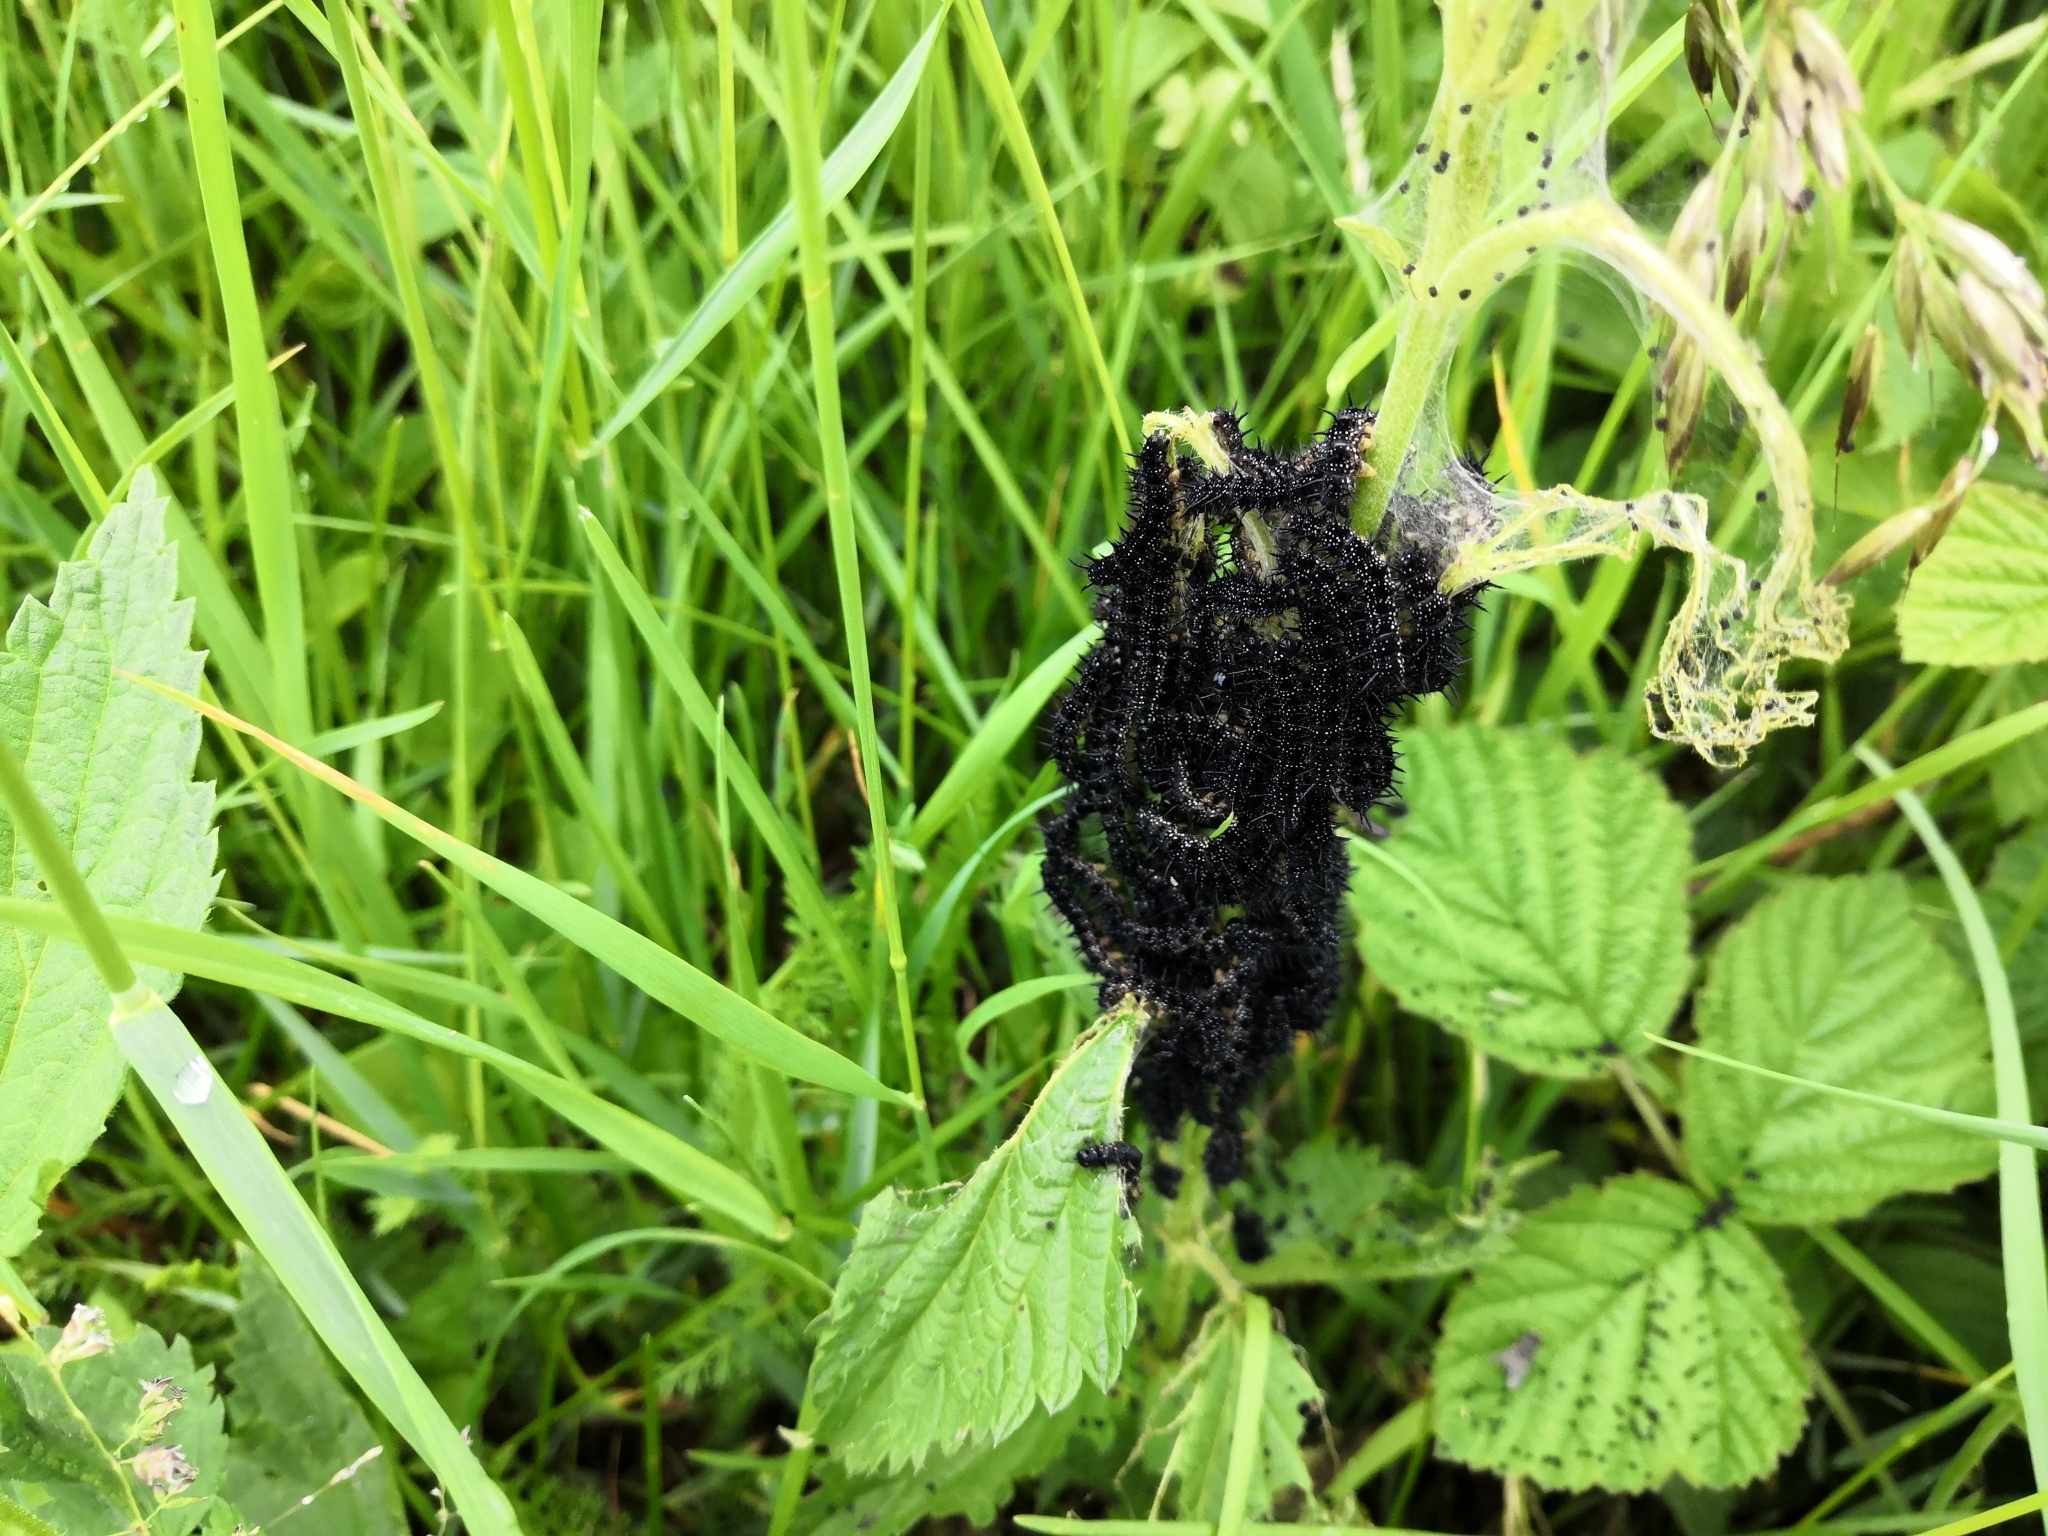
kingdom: Animalia
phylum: Arthropoda
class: Insecta
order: Lepidoptera
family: Nymphalidae
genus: Aglais
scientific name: Aglais io
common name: Peacock
